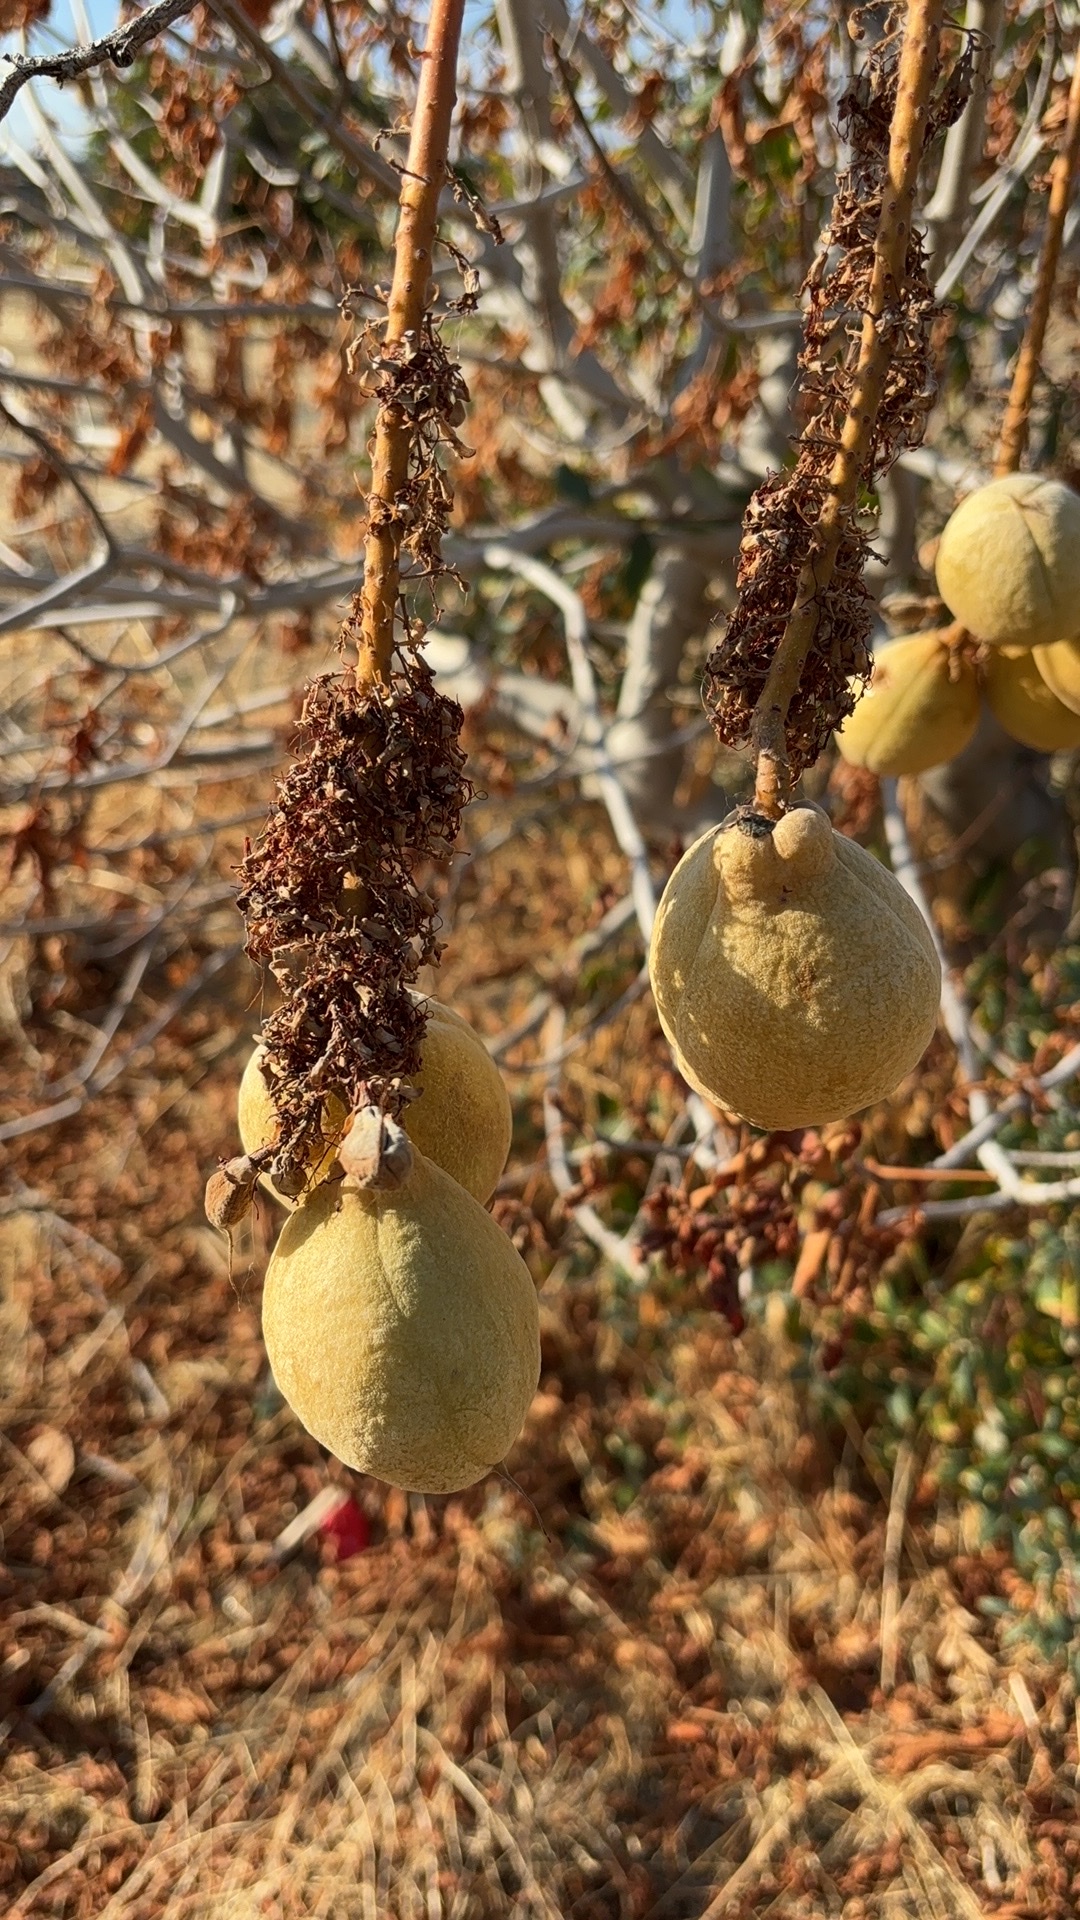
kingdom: Plantae
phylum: Tracheophyta
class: Magnoliopsida
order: Sapindales
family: Sapindaceae
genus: Aesculus
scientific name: Aesculus californica
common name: California buckeye
